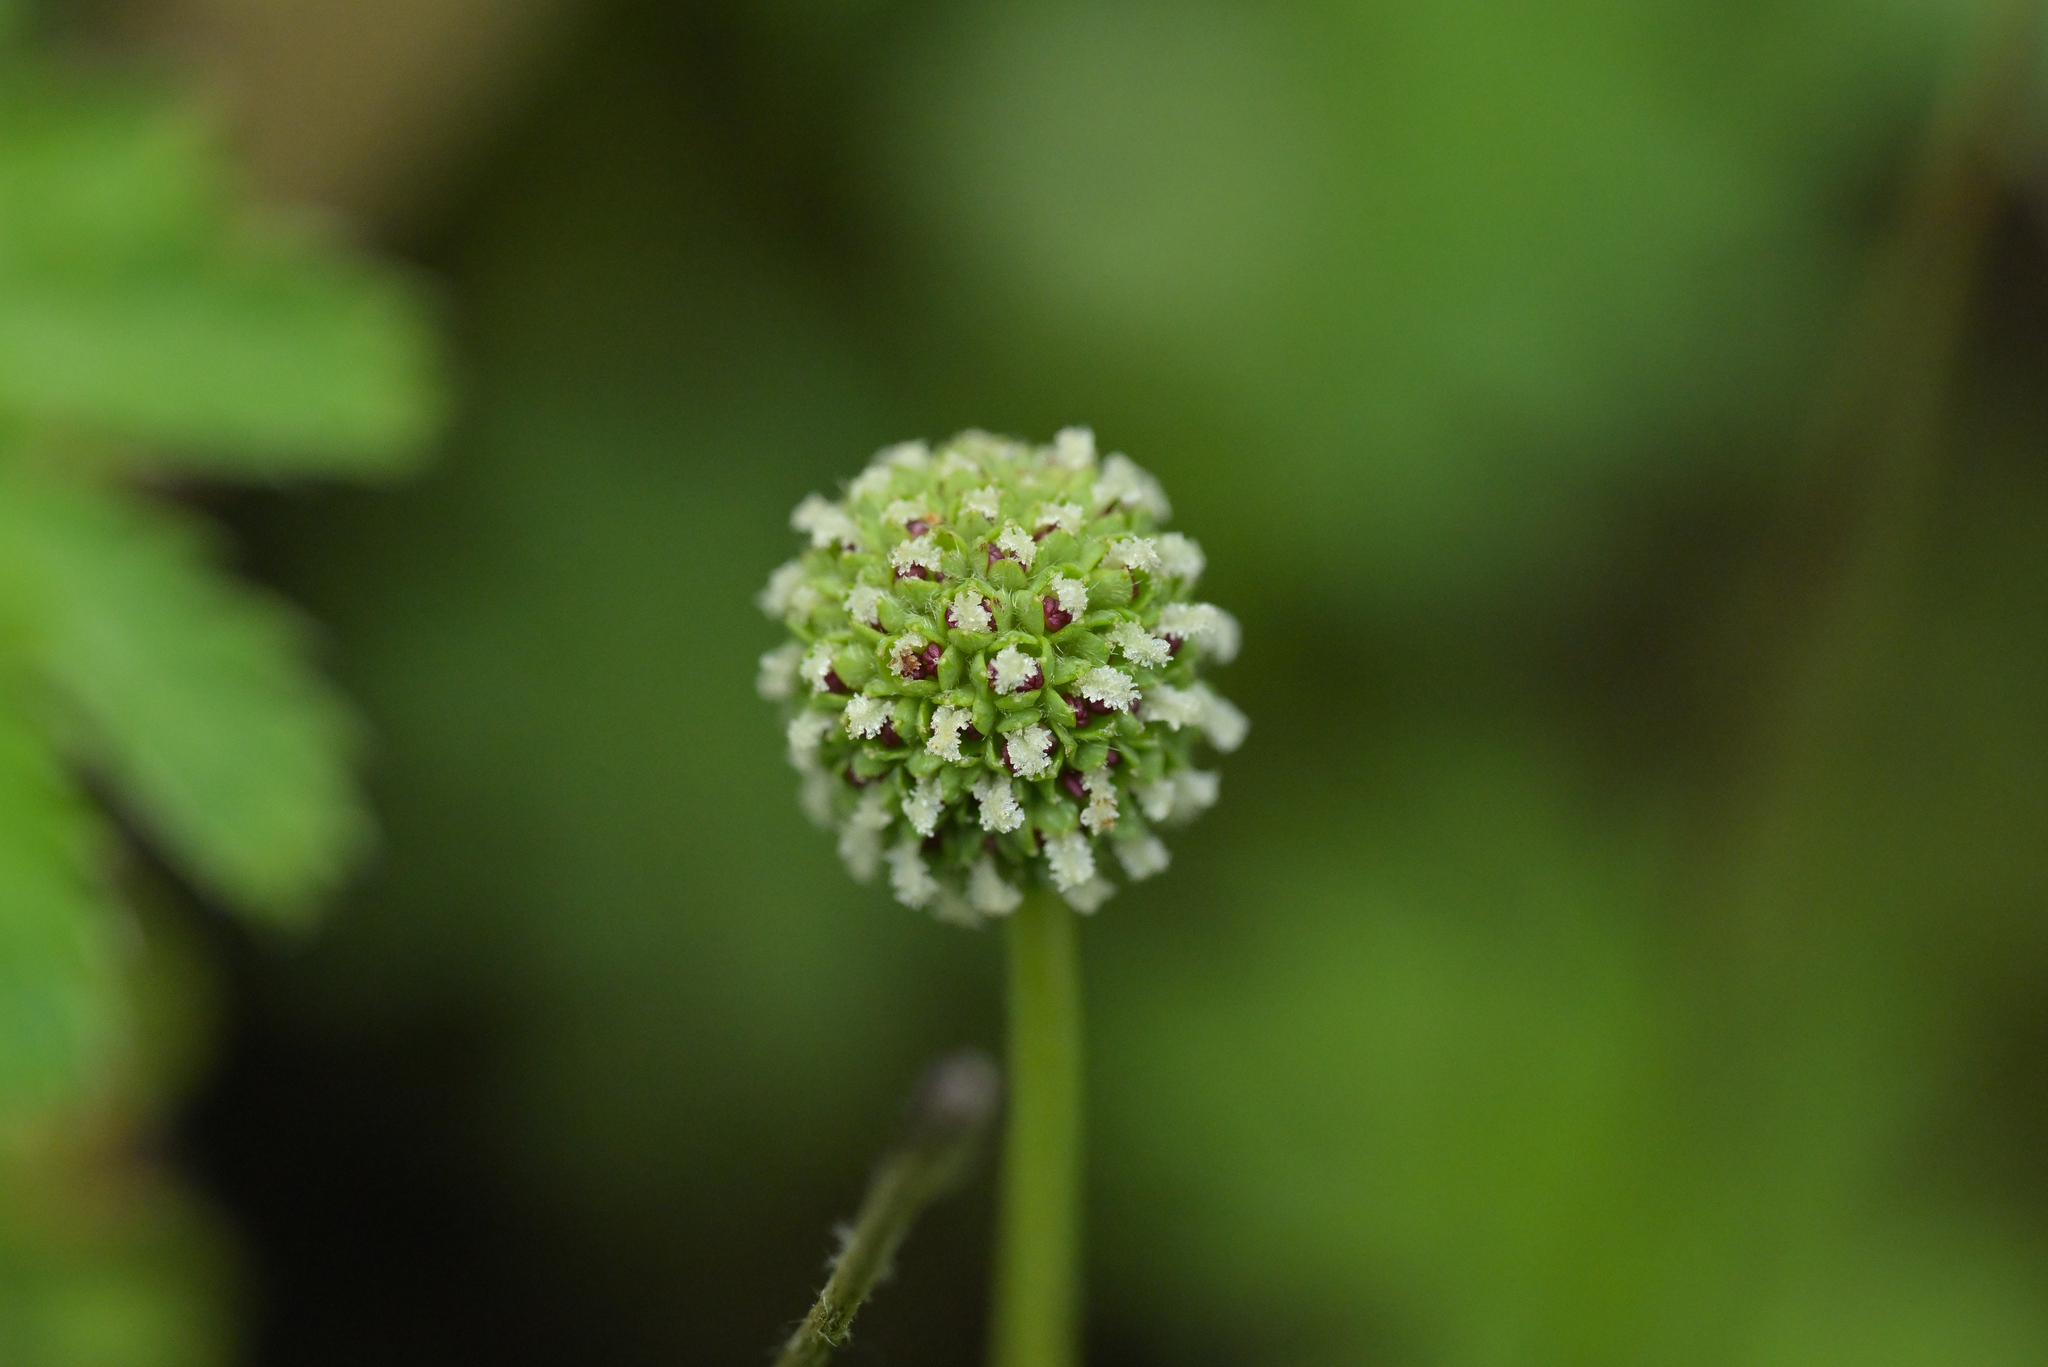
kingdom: Plantae
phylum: Tracheophyta
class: Magnoliopsida
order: Rosales
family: Rosaceae
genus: Acaena
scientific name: Acaena minor
